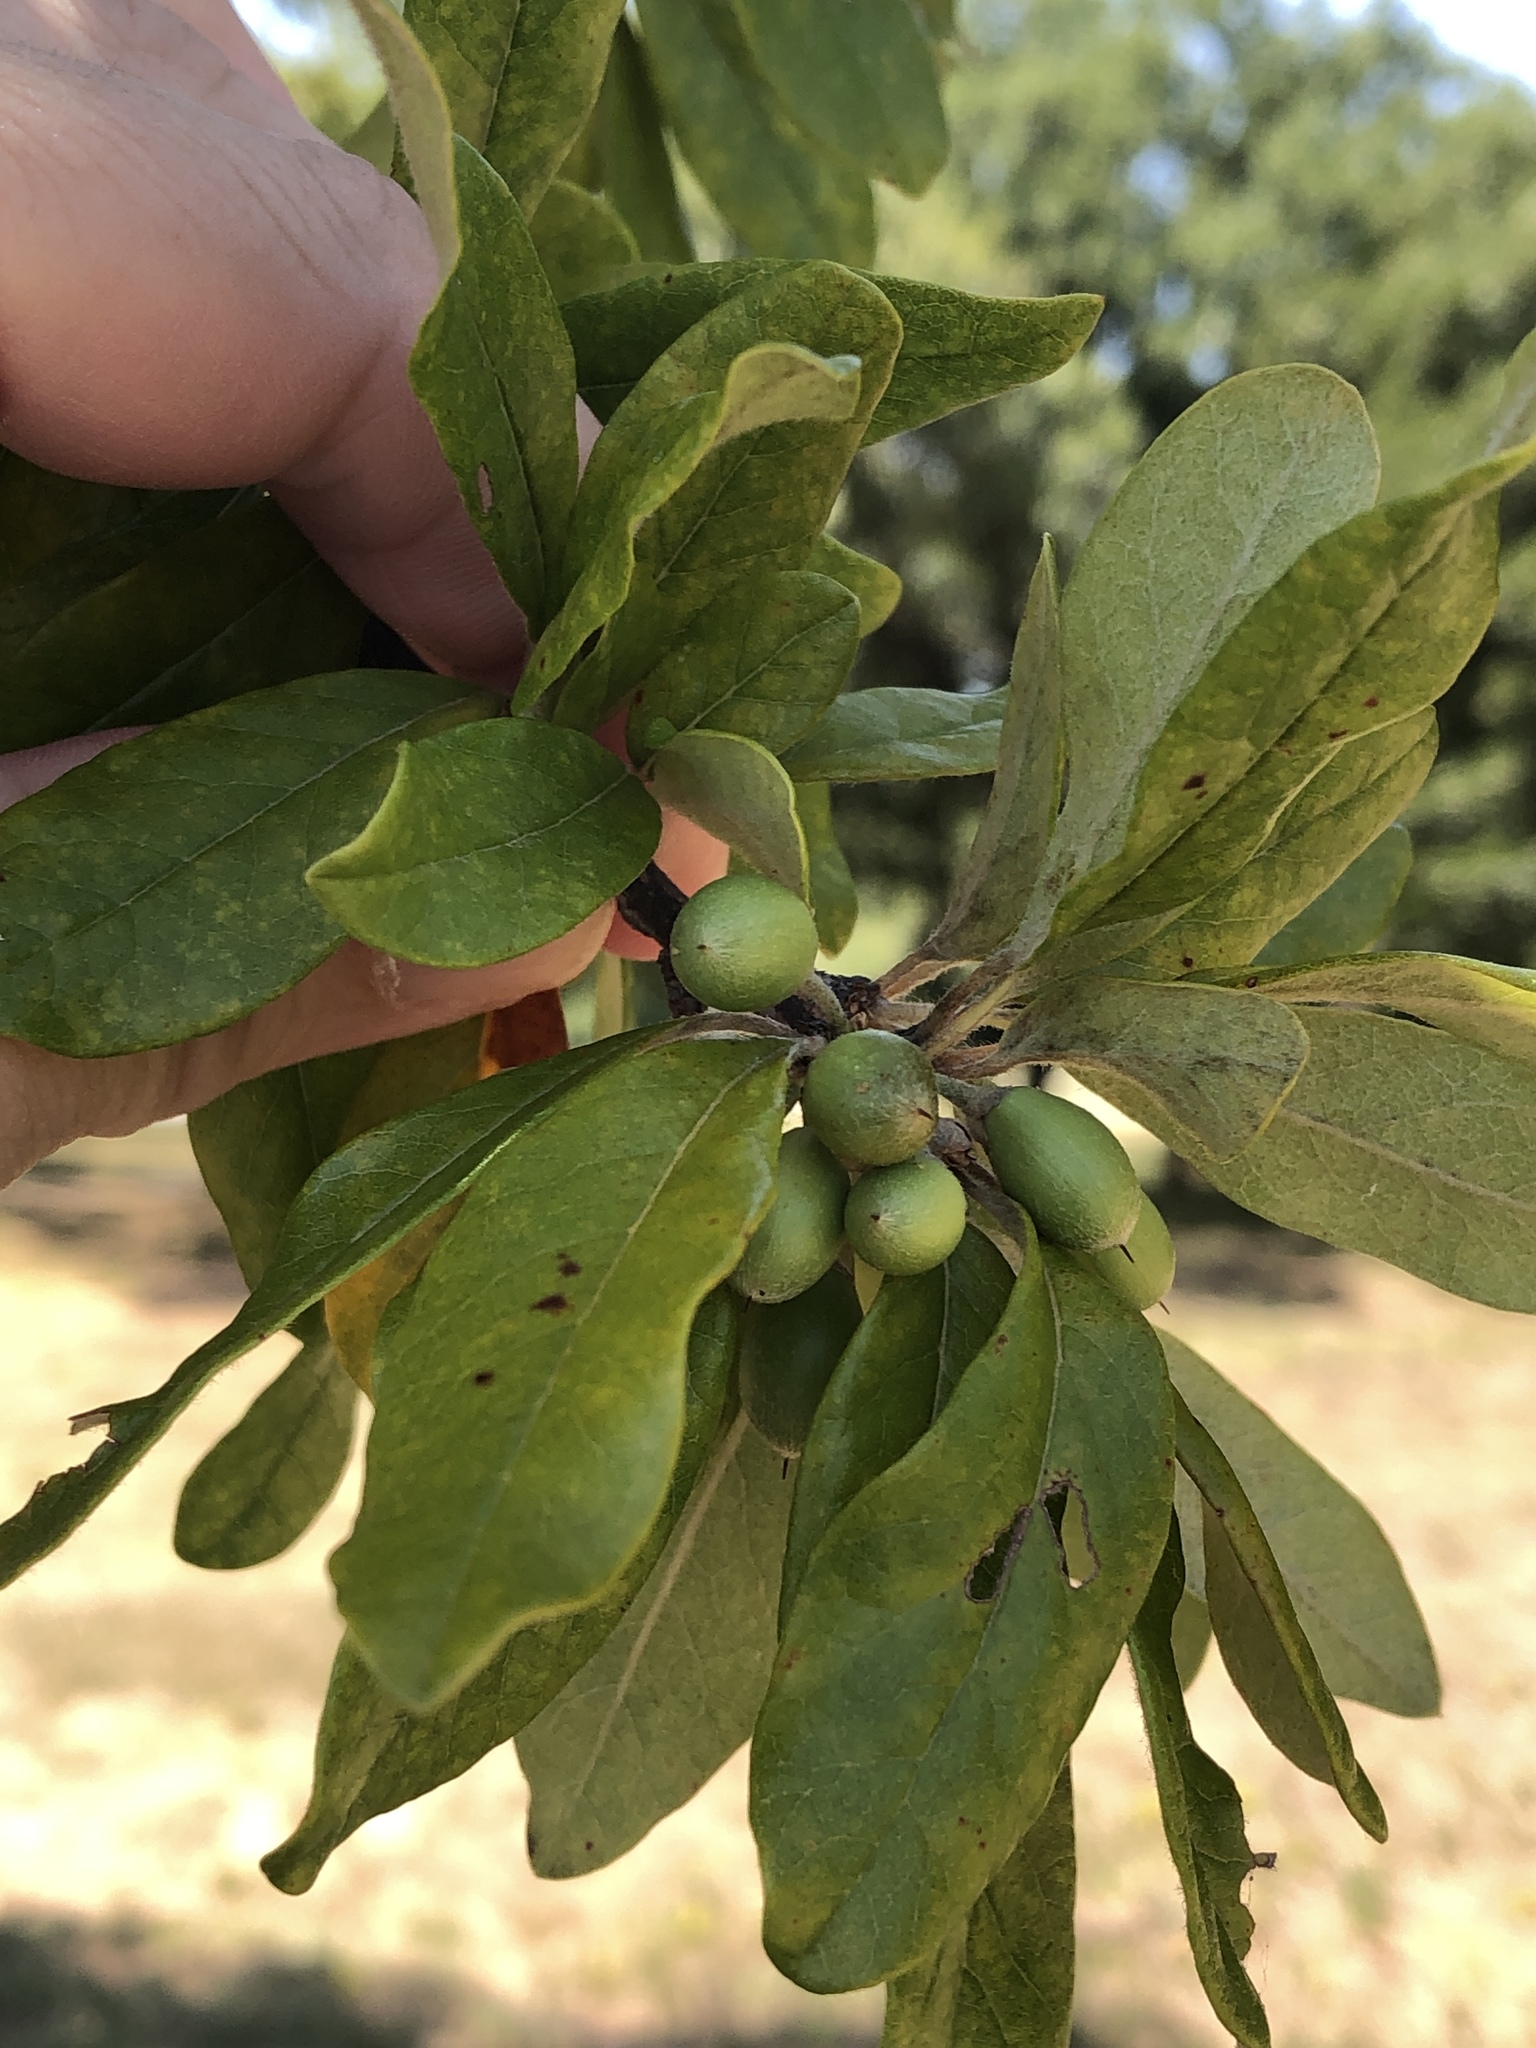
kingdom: Plantae
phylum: Tracheophyta
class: Magnoliopsida
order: Ericales
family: Sapotaceae
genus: Sideroxylon
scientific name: Sideroxylon lanuginosum
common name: Chittamwood
